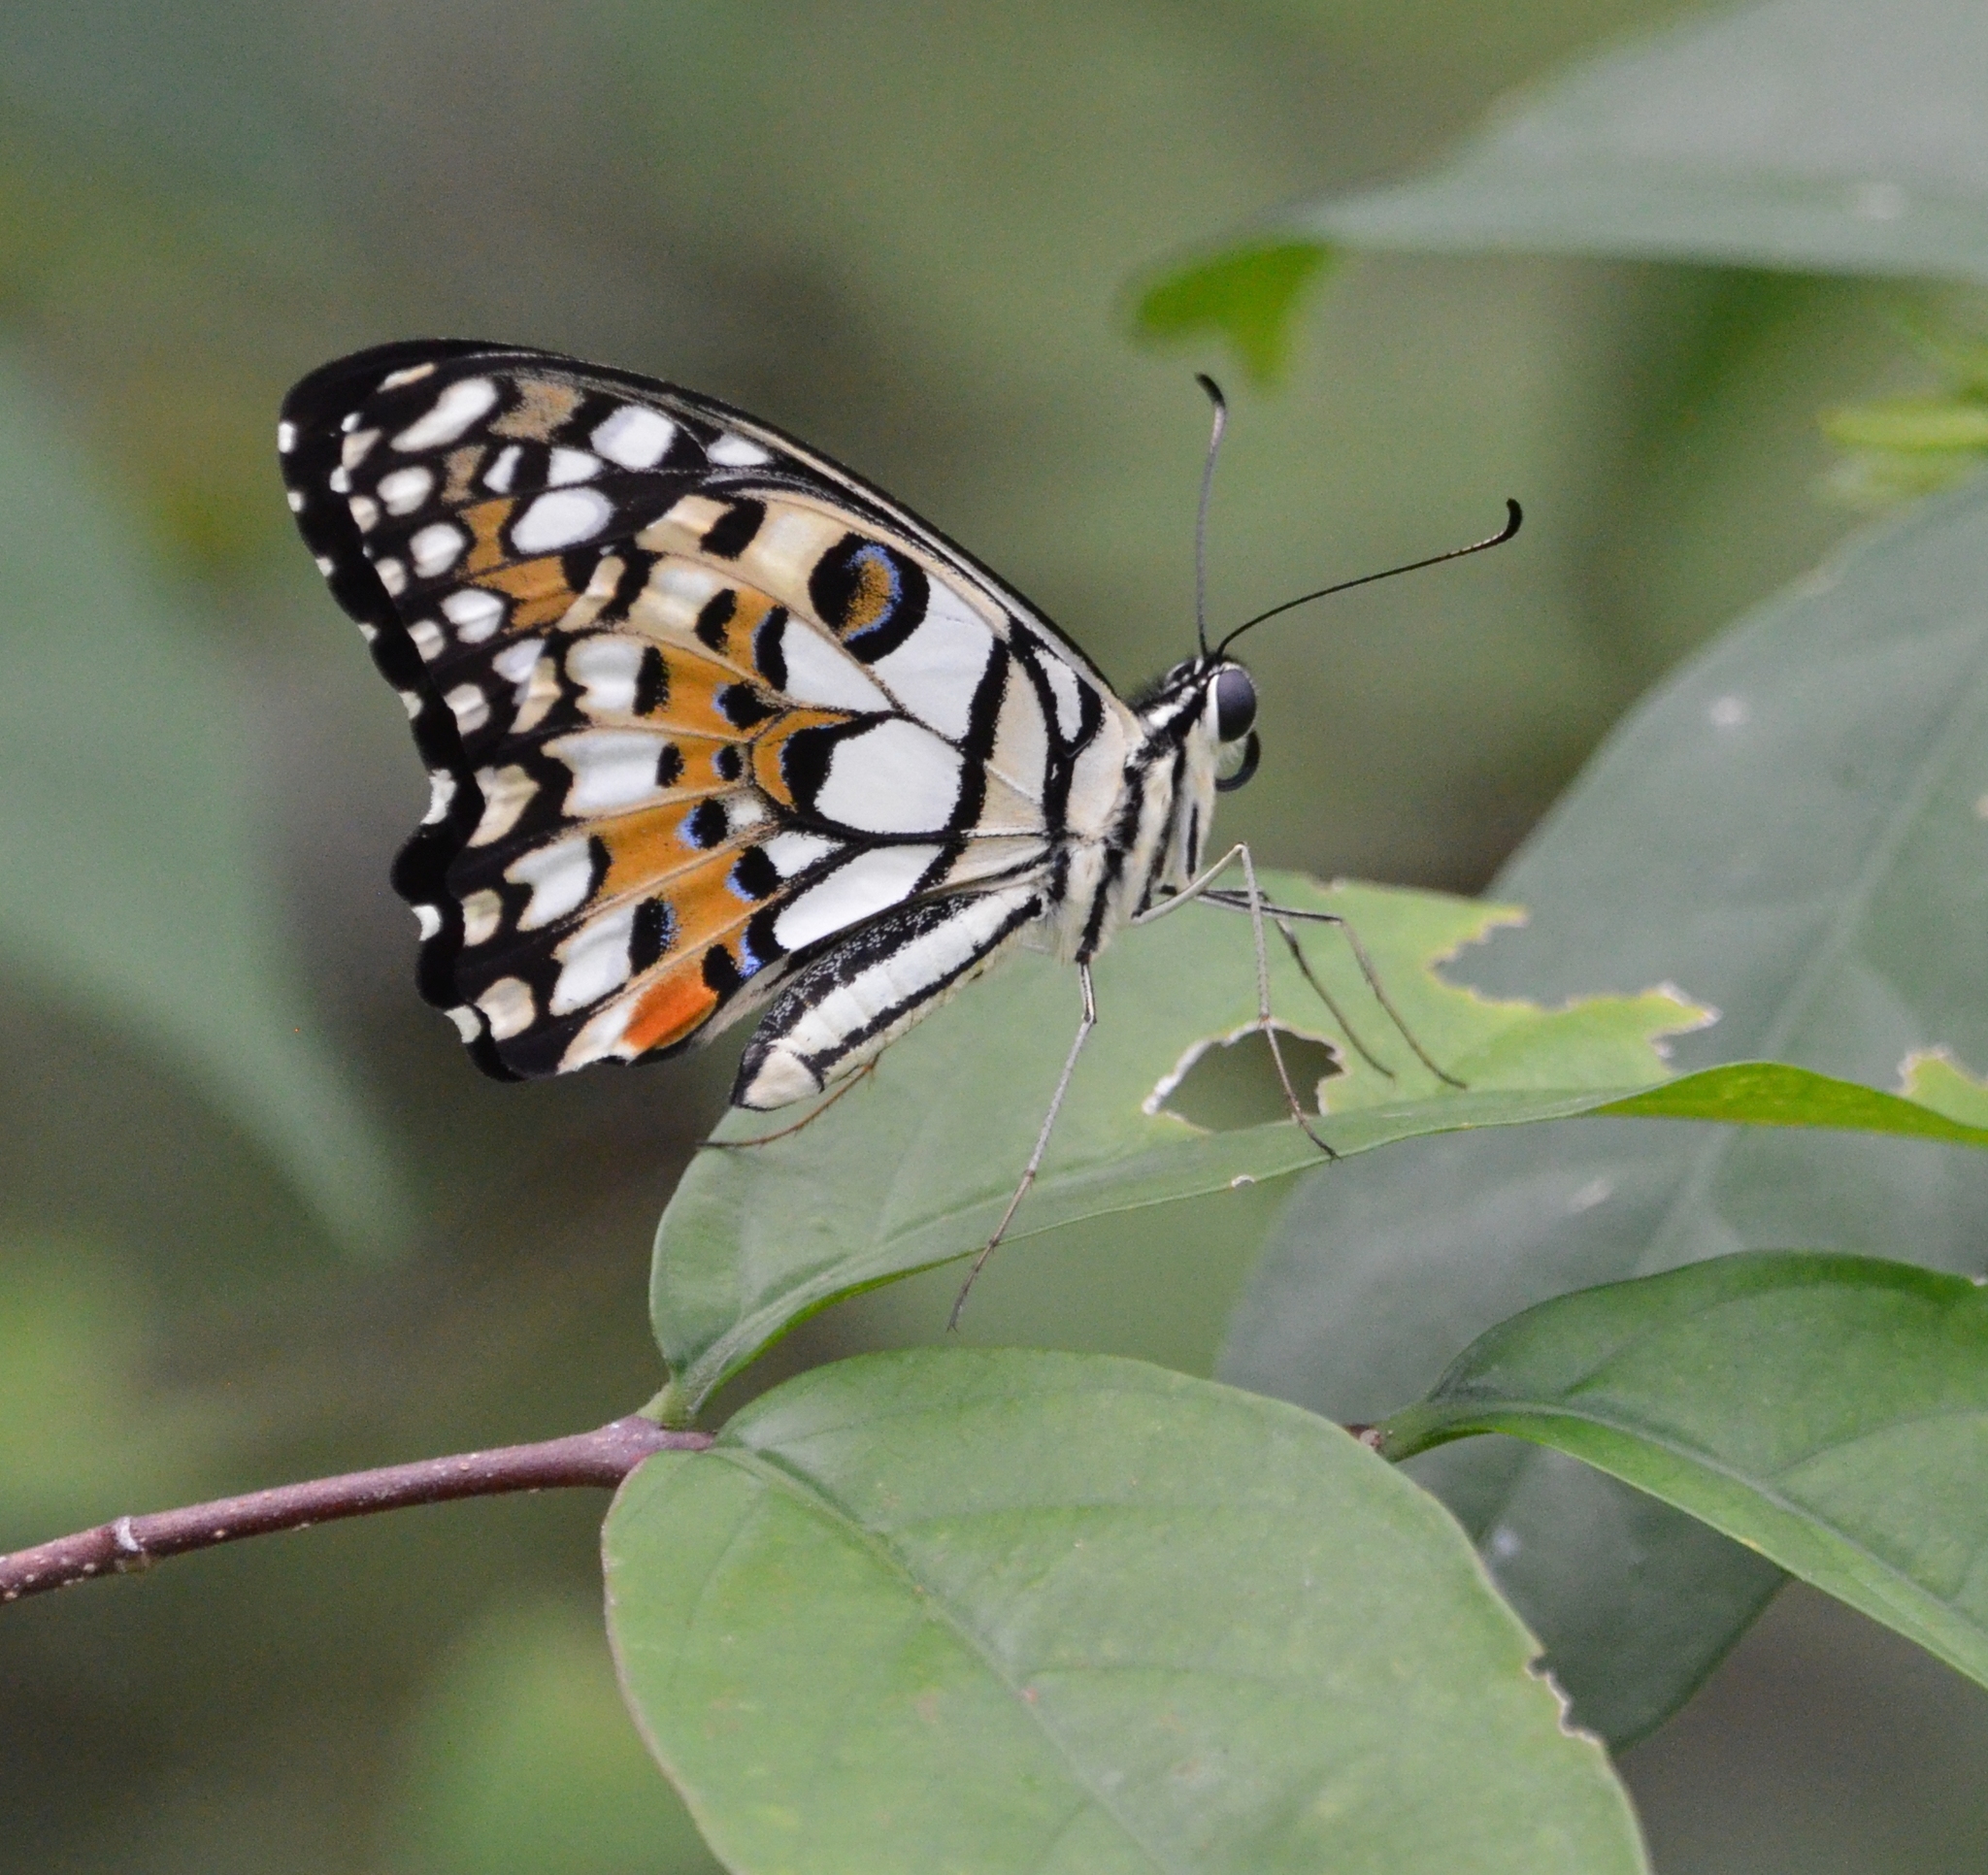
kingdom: Animalia
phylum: Arthropoda
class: Insecta
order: Lepidoptera
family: Papilionidae
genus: Papilio
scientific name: Papilio demoleus
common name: Lime butterfly
